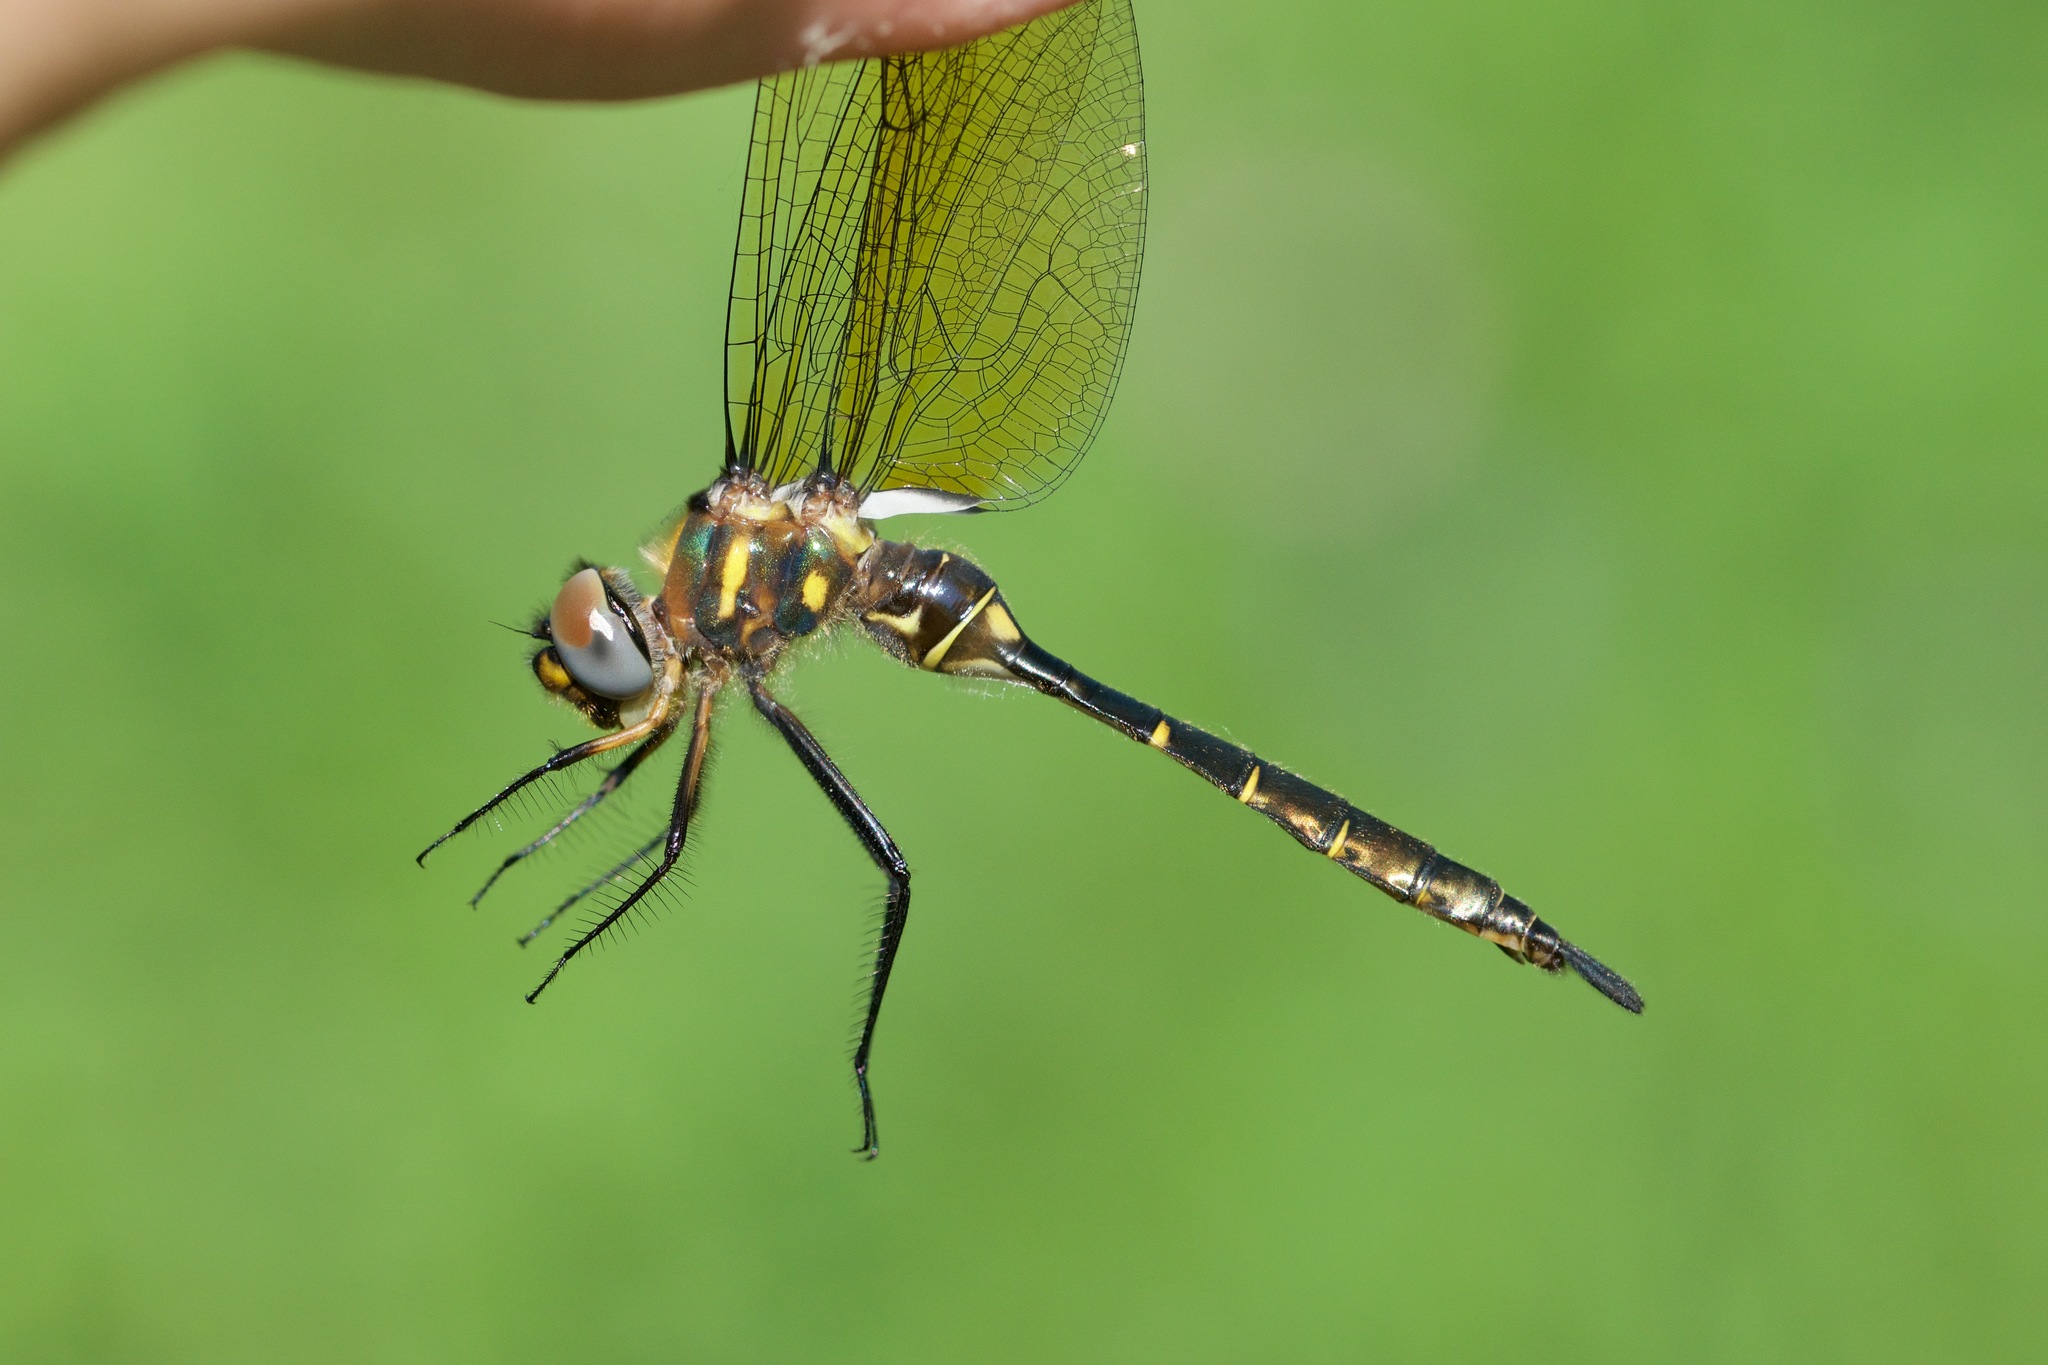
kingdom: Animalia
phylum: Arthropoda
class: Insecta
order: Odonata
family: Corduliidae
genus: Somatochlora
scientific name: Somatochlora walshii
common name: Brush-tipped emerald
